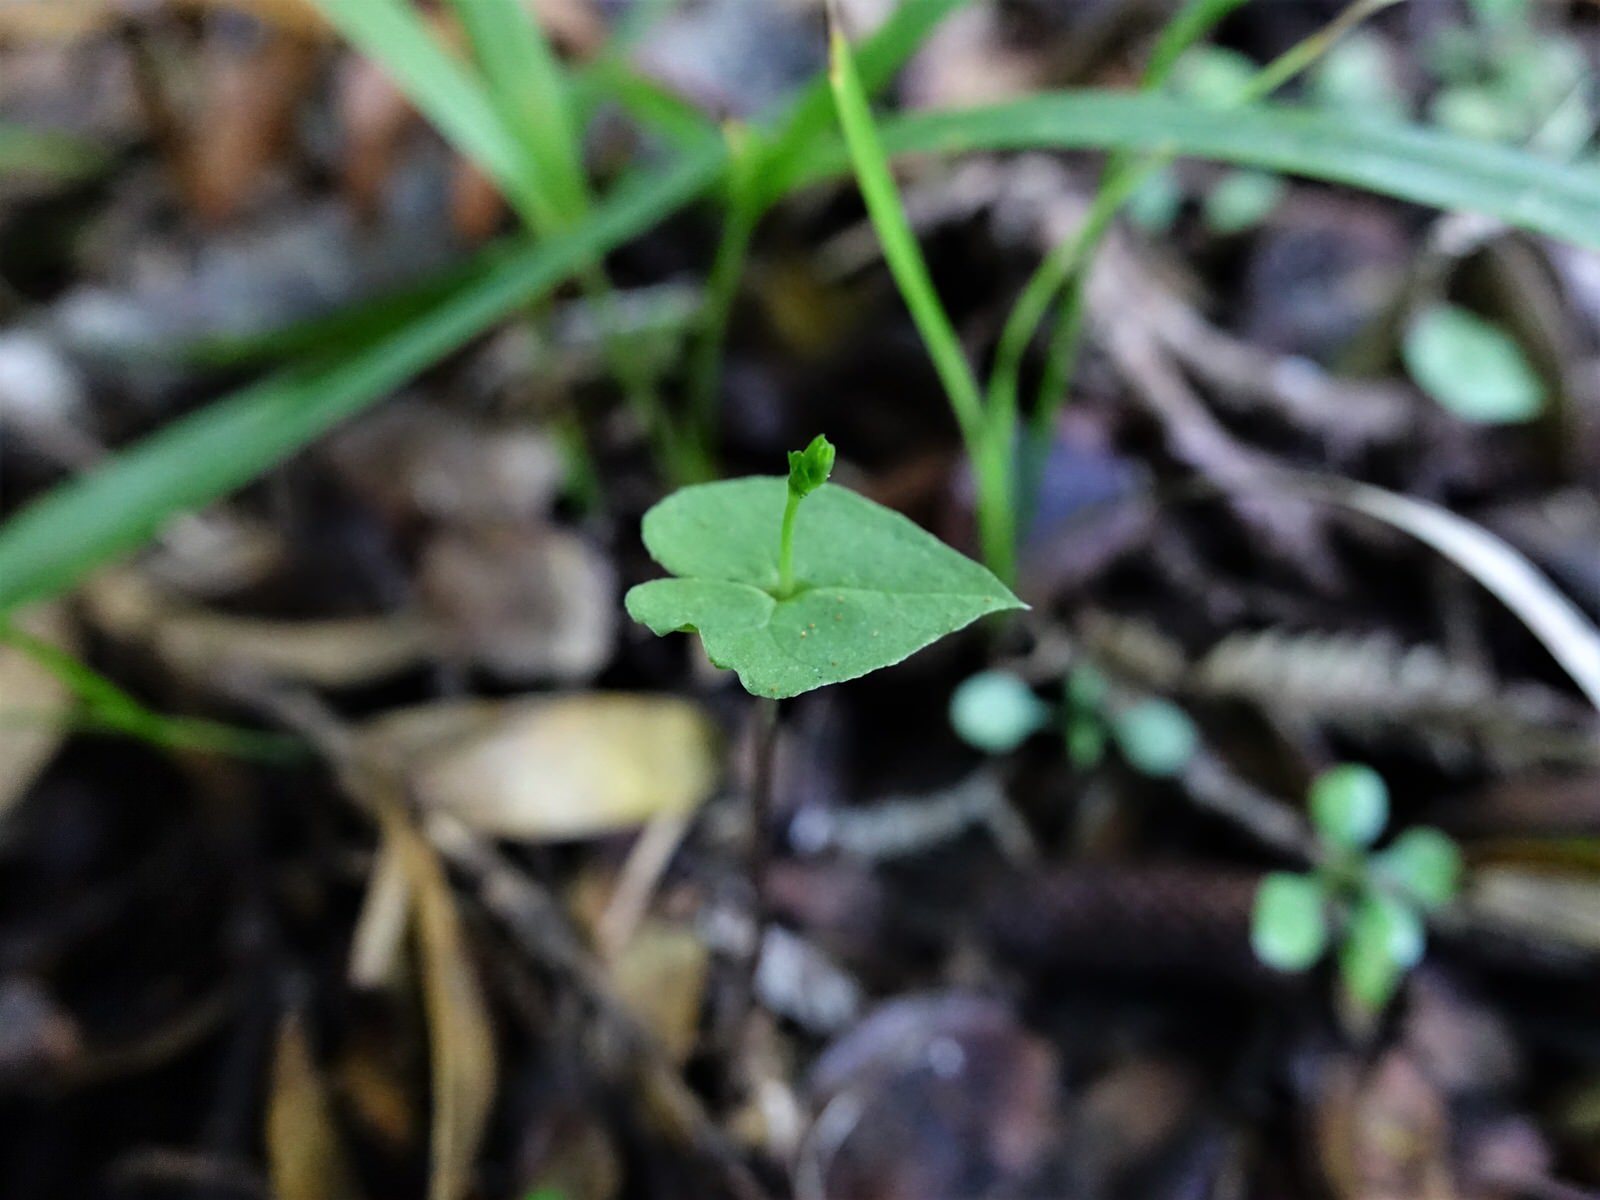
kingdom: Plantae
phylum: Tracheophyta
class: Liliopsida
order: Asparagales
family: Orchidaceae
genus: Acianthus
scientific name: Acianthus sinclairii
